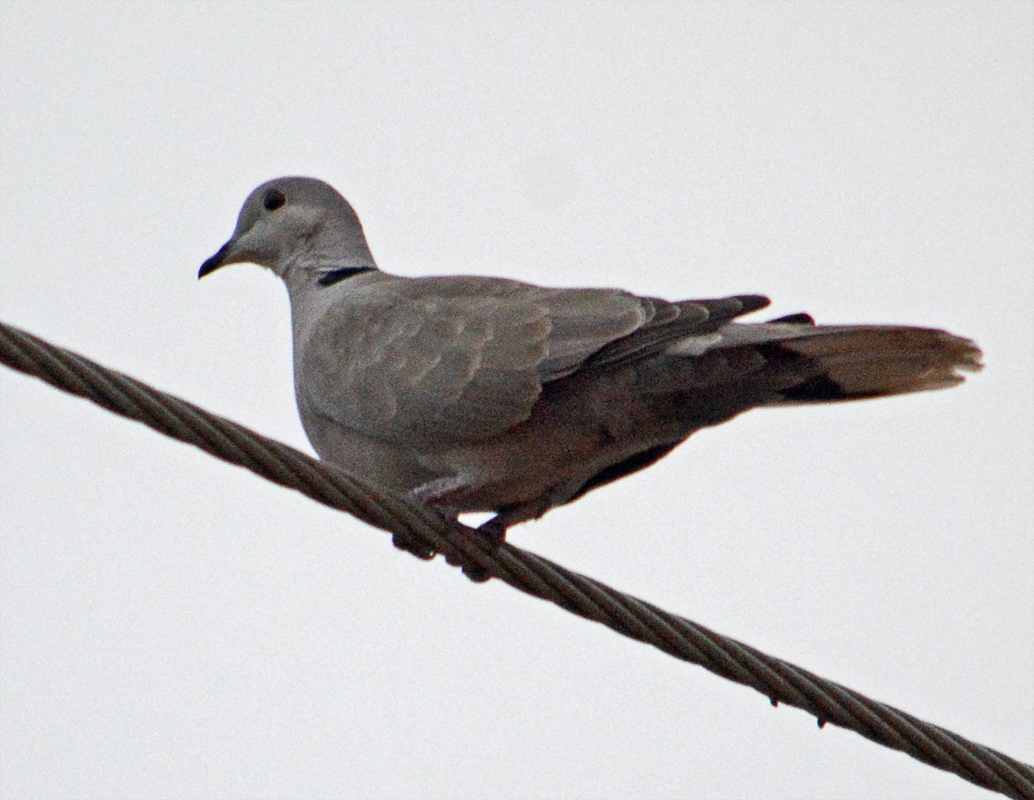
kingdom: Animalia
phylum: Chordata
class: Aves
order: Columbiformes
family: Columbidae
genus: Streptopelia
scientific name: Streptopelia decaocto
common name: Eurasian collared dove
